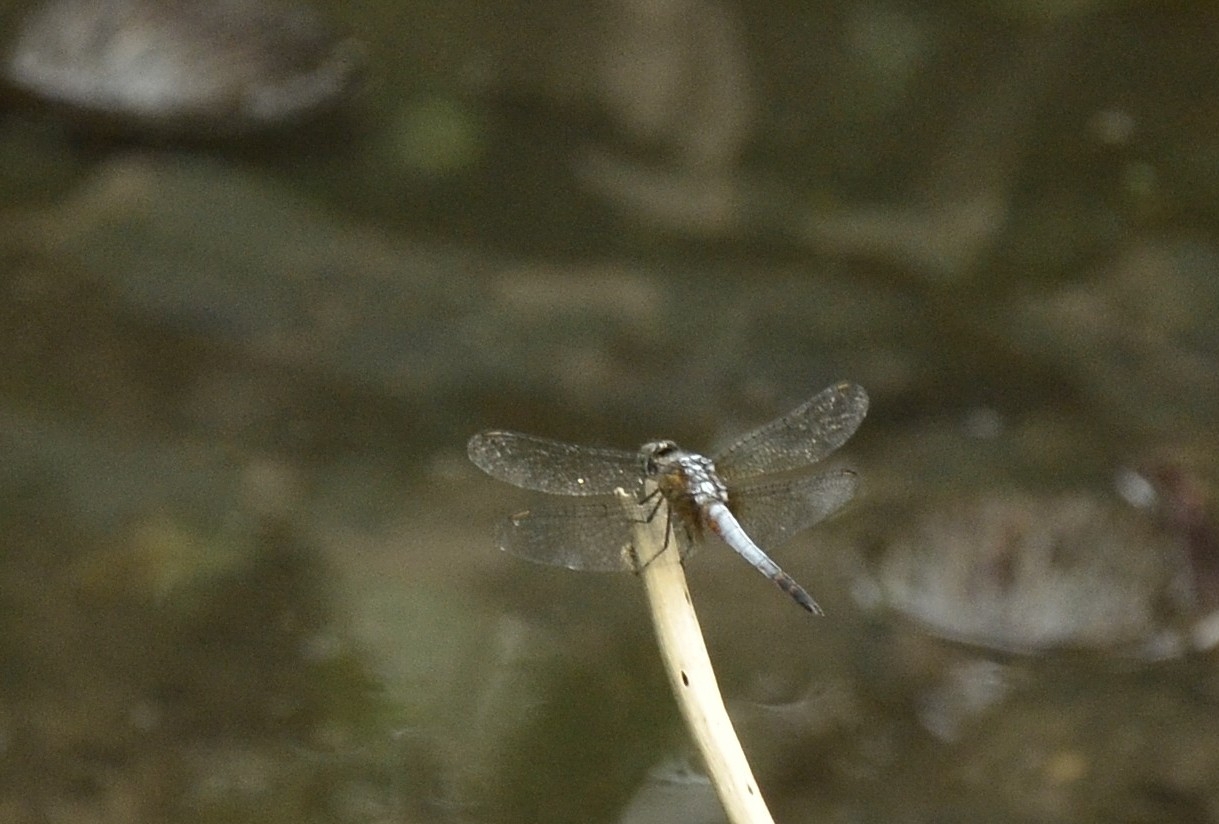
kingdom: Animalia
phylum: Arthropoda
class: Insecta
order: Odonata
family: Libellulidae
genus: Brachydiplax
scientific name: Brachydiplax chalybea
